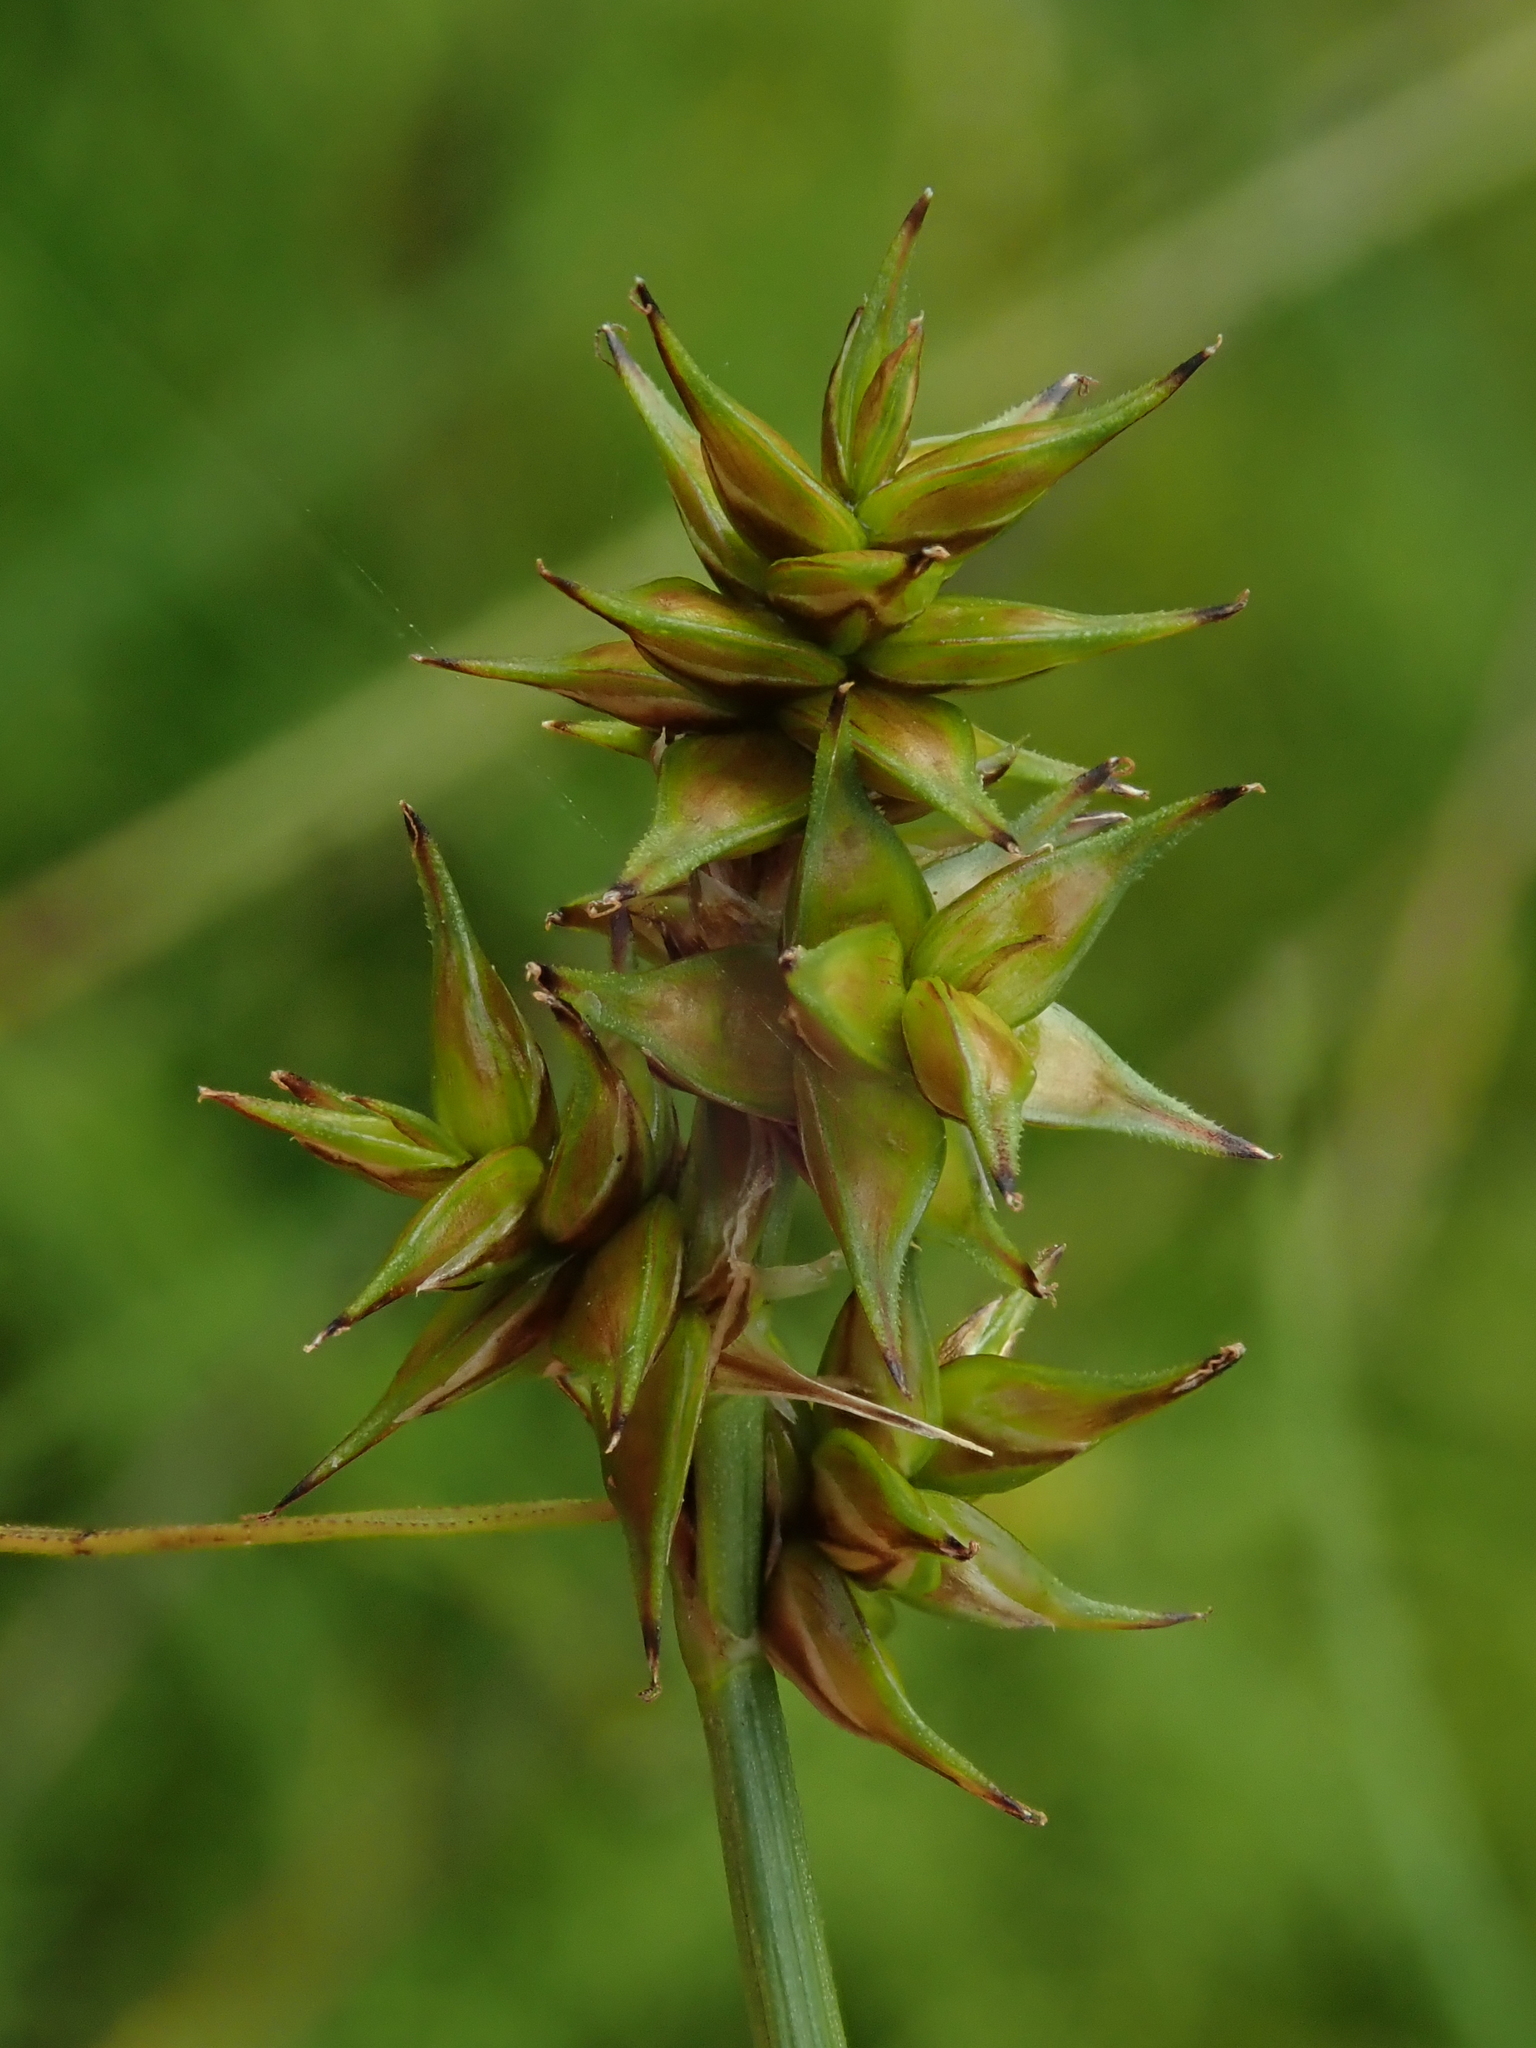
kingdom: Plantae
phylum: Tracheophyta
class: Liliopsida
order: Poales
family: Cyperaceae
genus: Carex
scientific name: Carex echinata
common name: Star sedge
